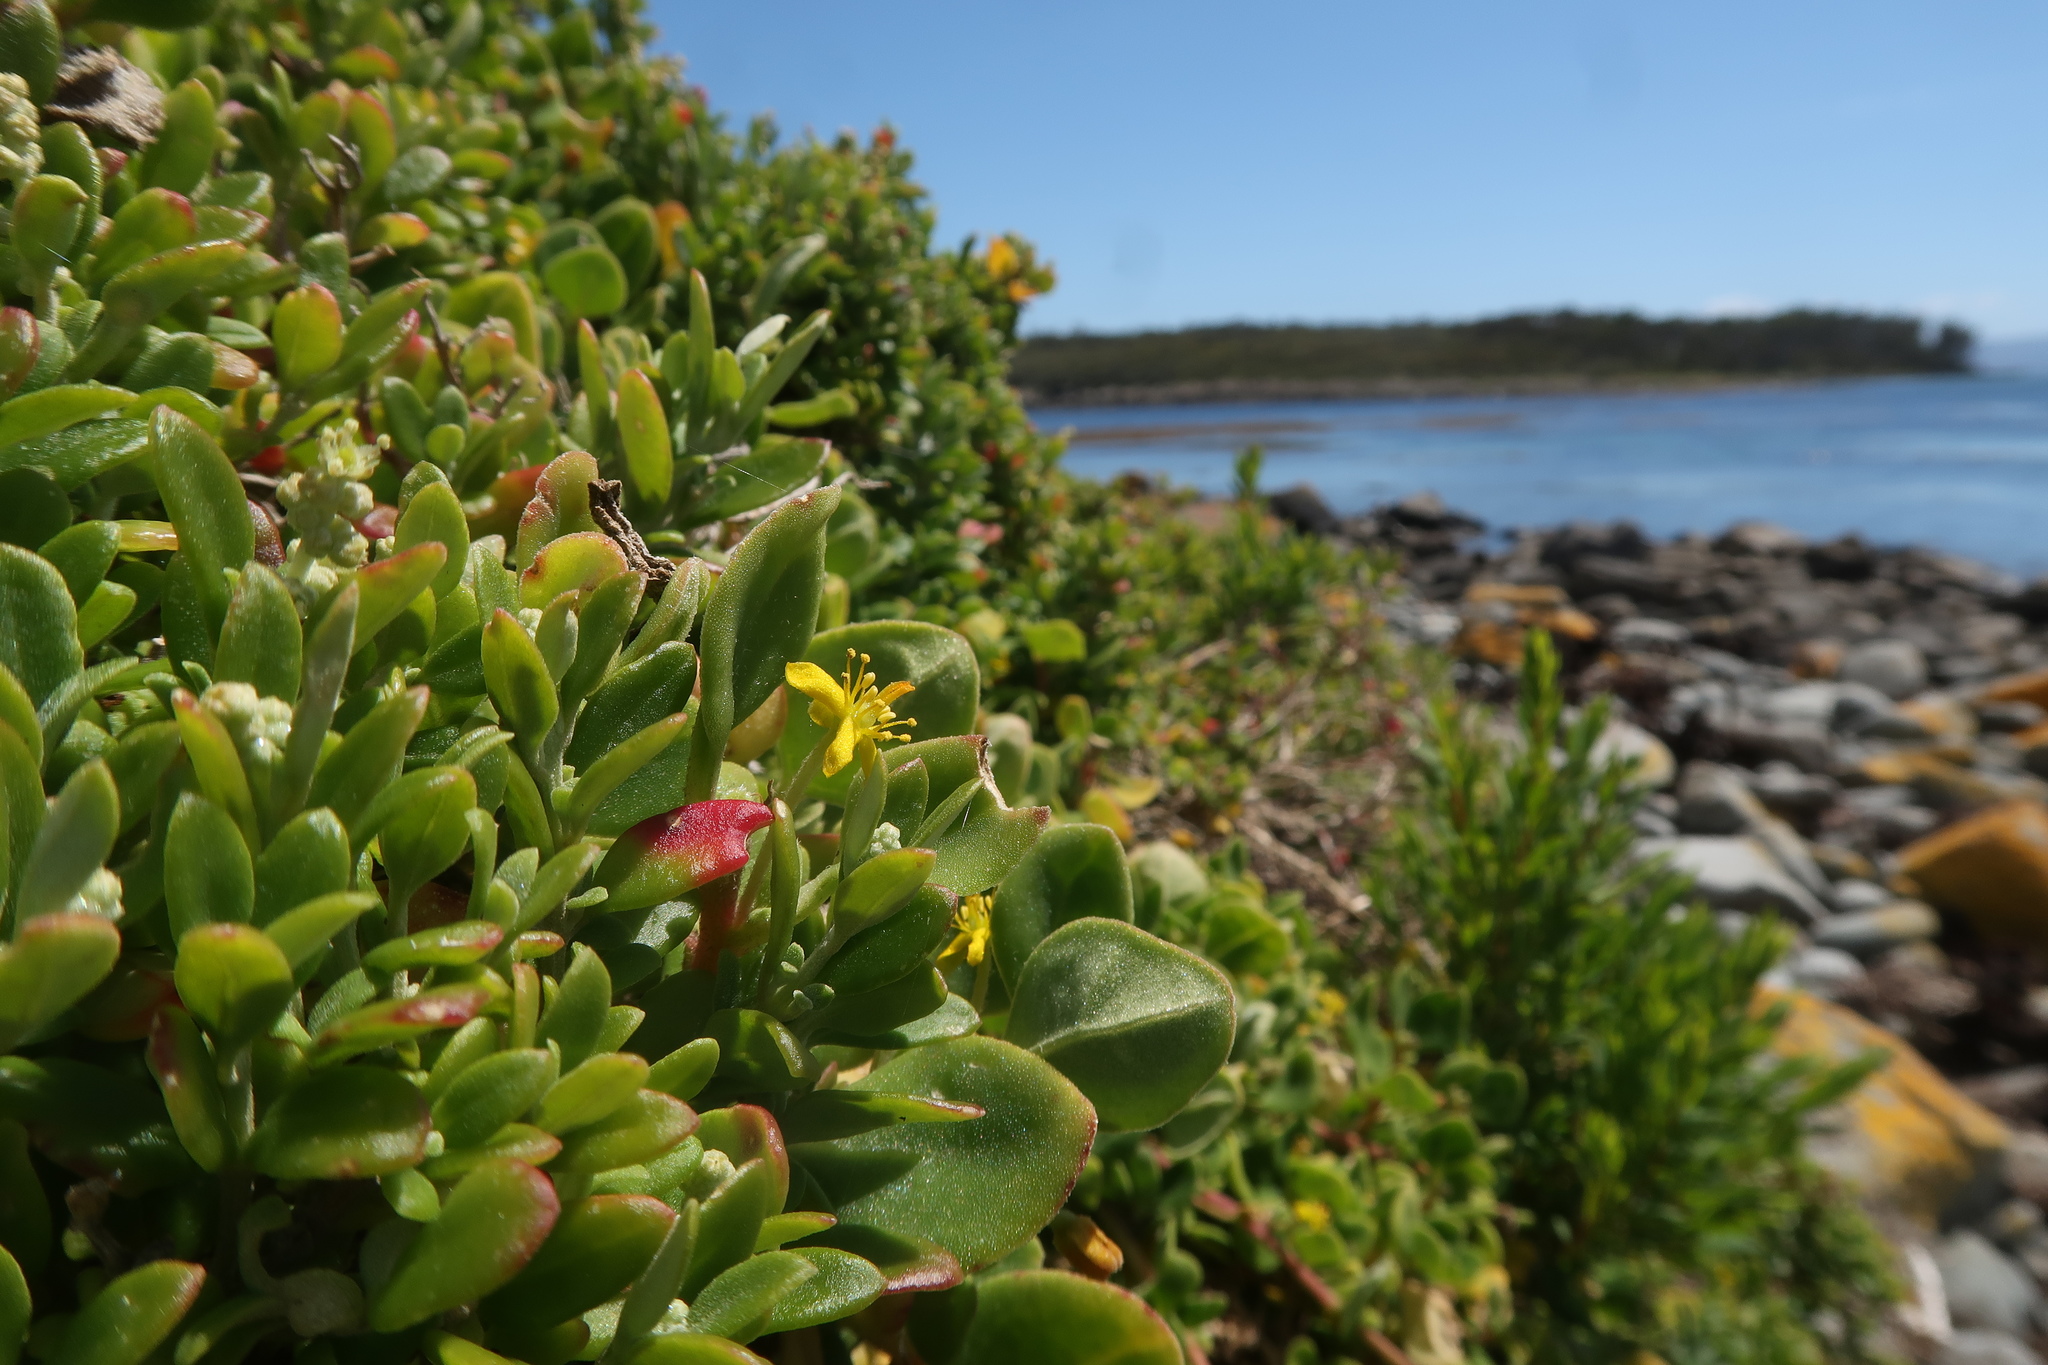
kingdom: Plantae
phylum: Tracheophyta
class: Magnoliopsida
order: Caryophyllales
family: Aizoaceae
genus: Tetragonia
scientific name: Tetragonia implexicoma
